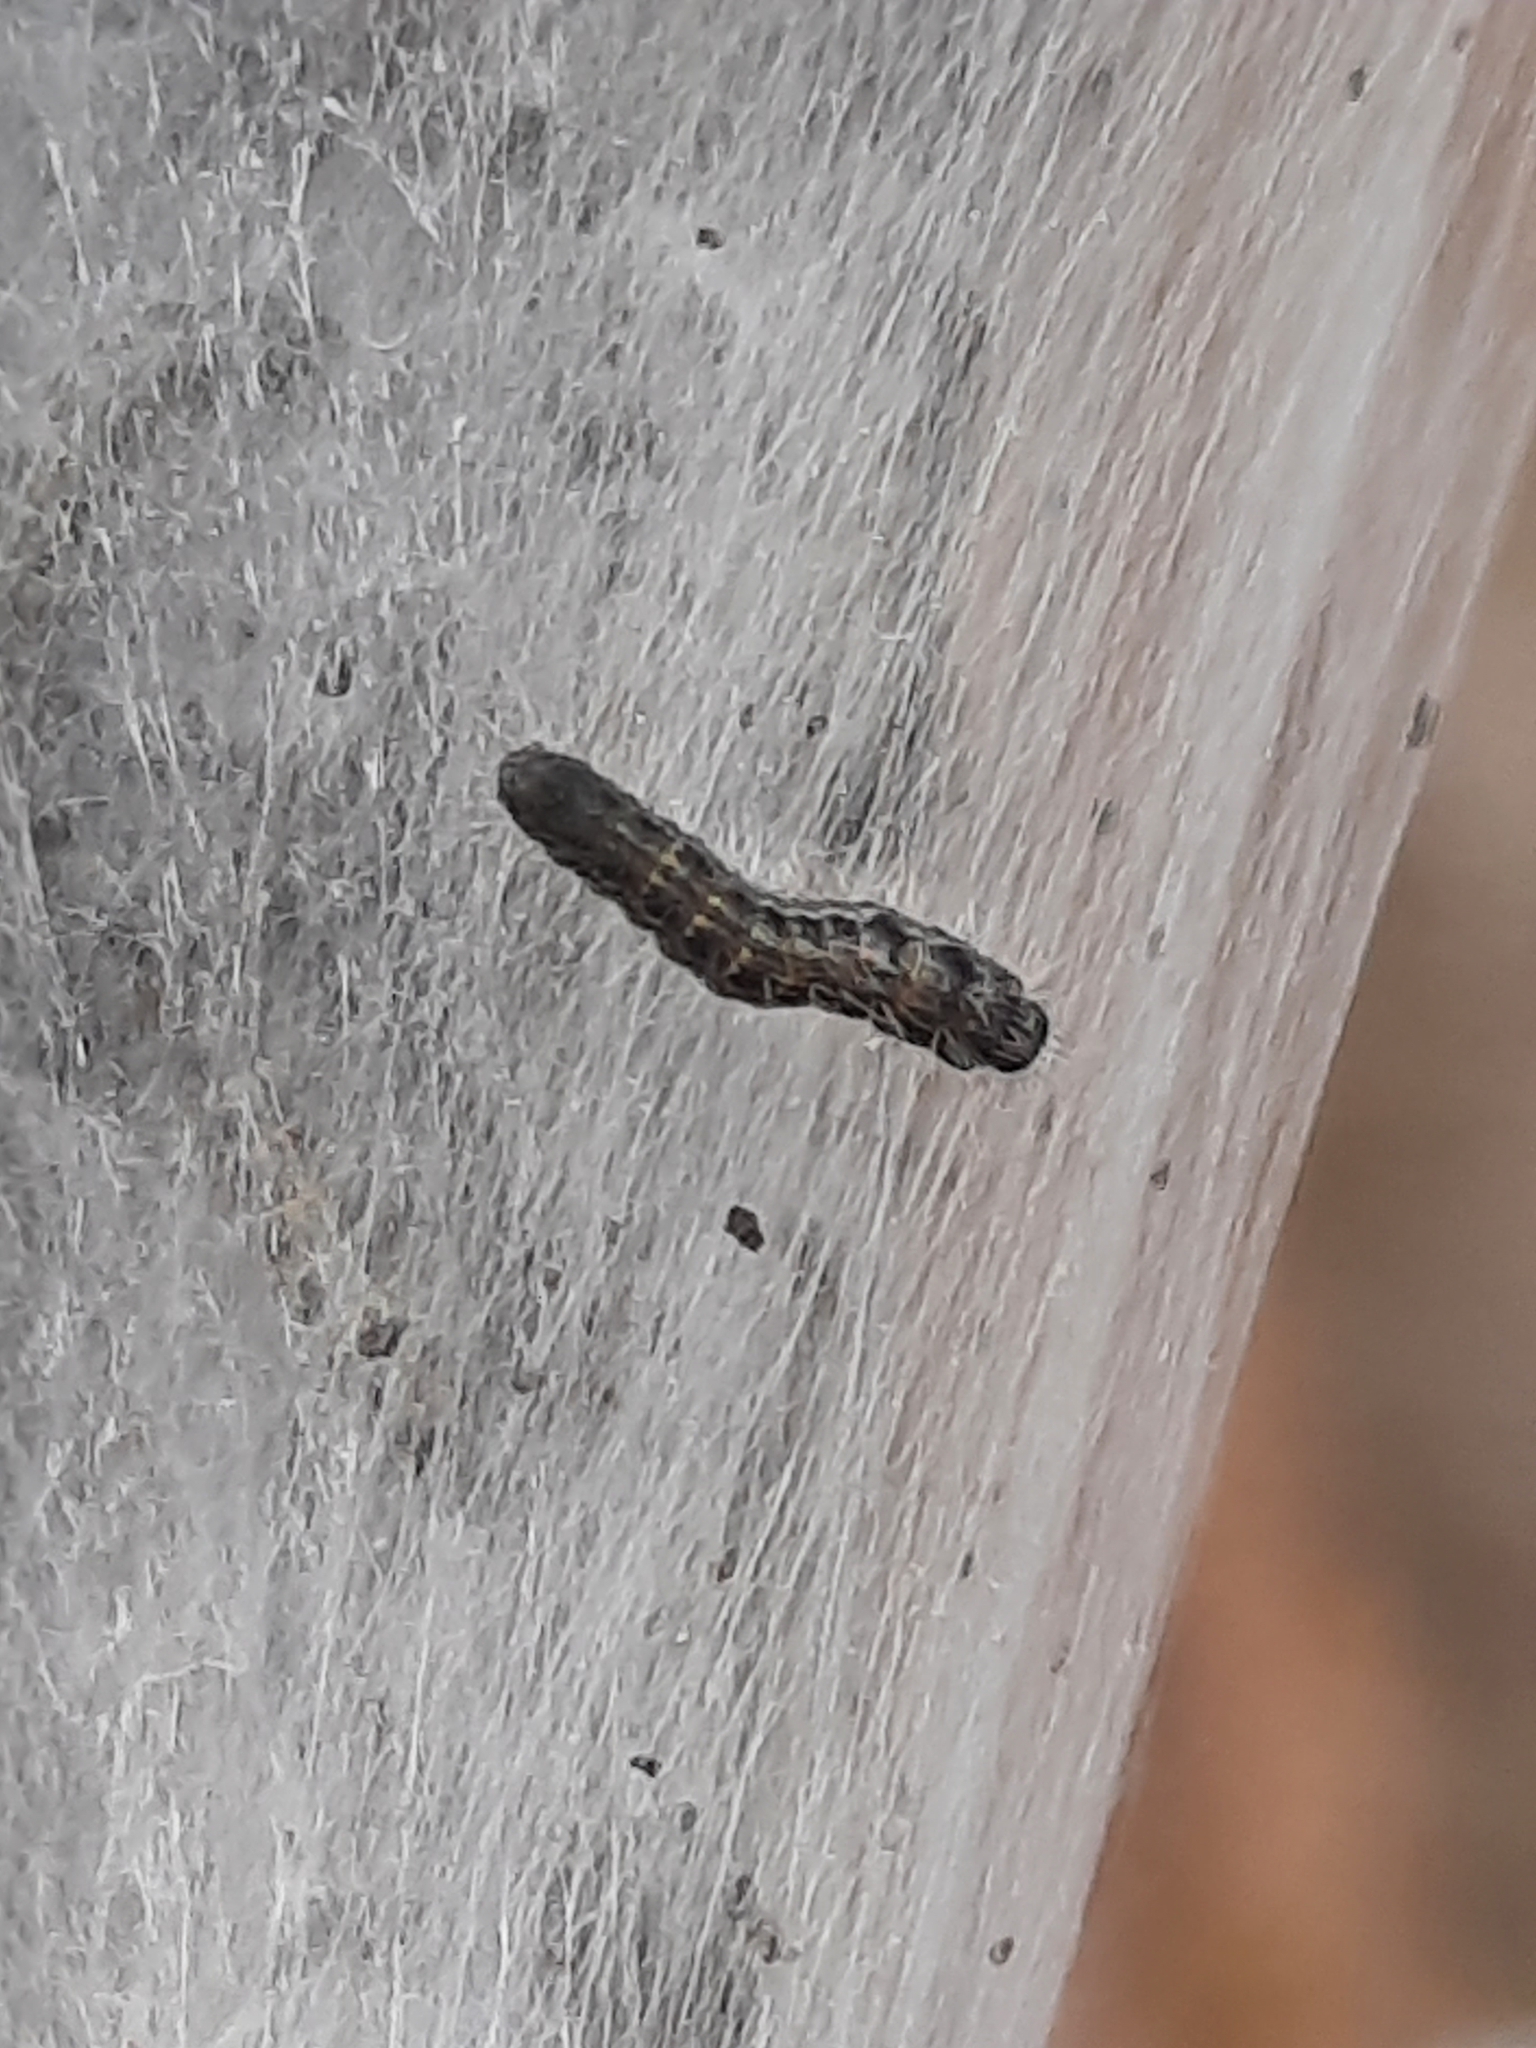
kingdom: Animalia
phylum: Arthropoda
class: Insecta
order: Lepidoptera
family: Lasiocampidae
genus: Malacosoma
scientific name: Malacosoma americana
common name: Eastern tent caterpillar moth
